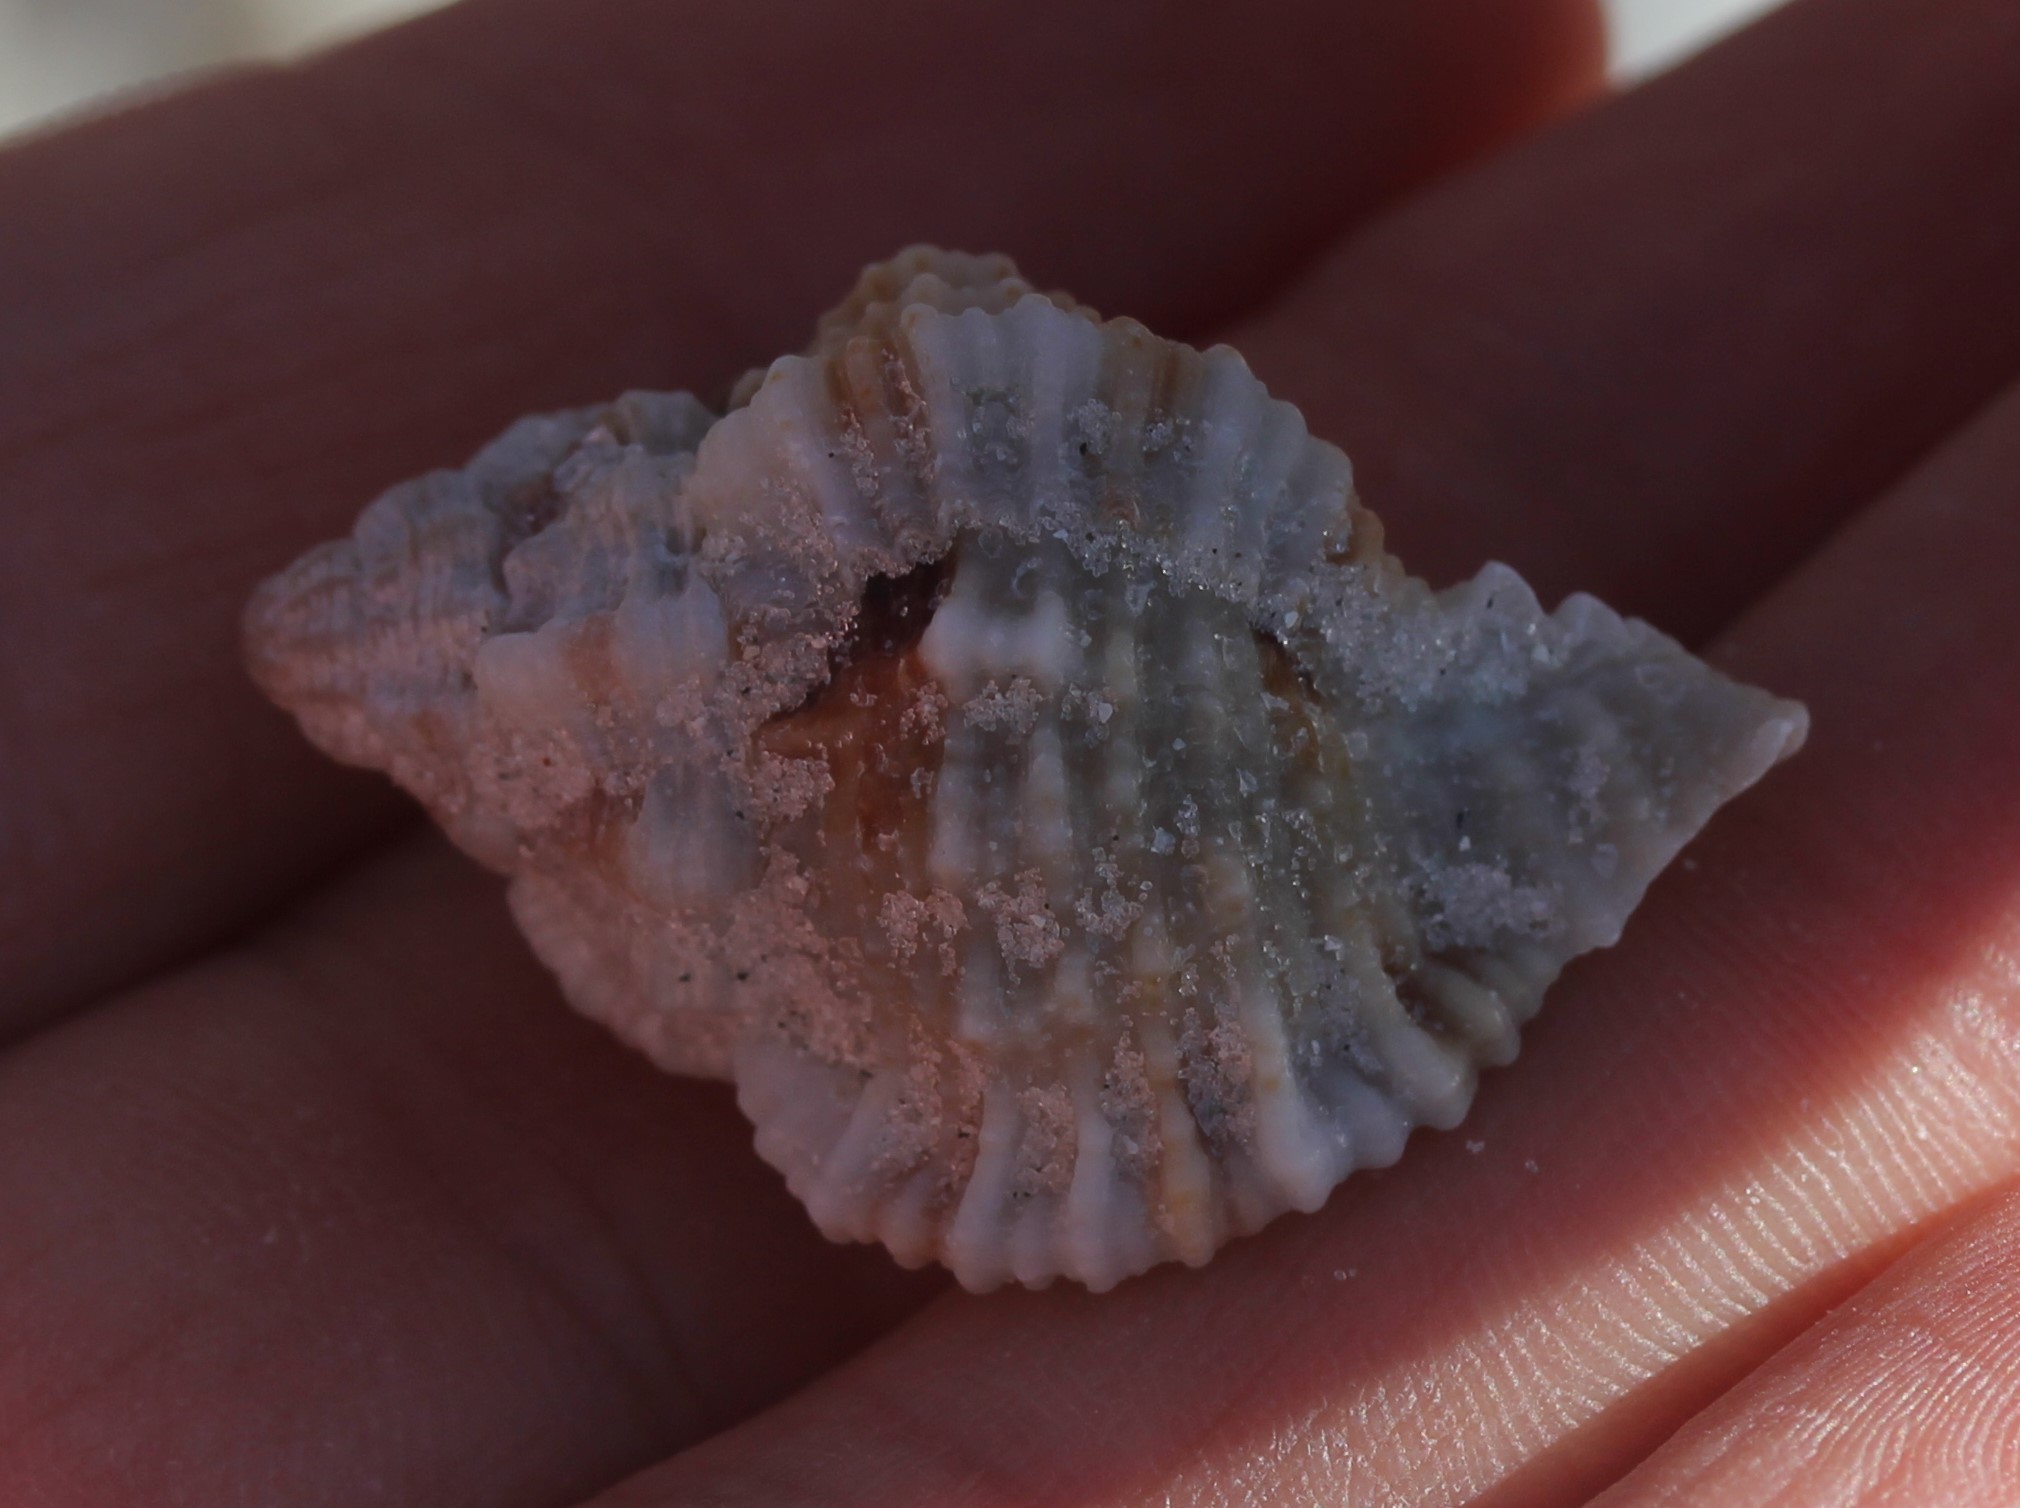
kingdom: Animalia
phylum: Mollusca
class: Gastropoda
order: Neogastropoda
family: Muricidae
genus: Phyllonotus
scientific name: Phyllonotus pomum
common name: Apple murex
